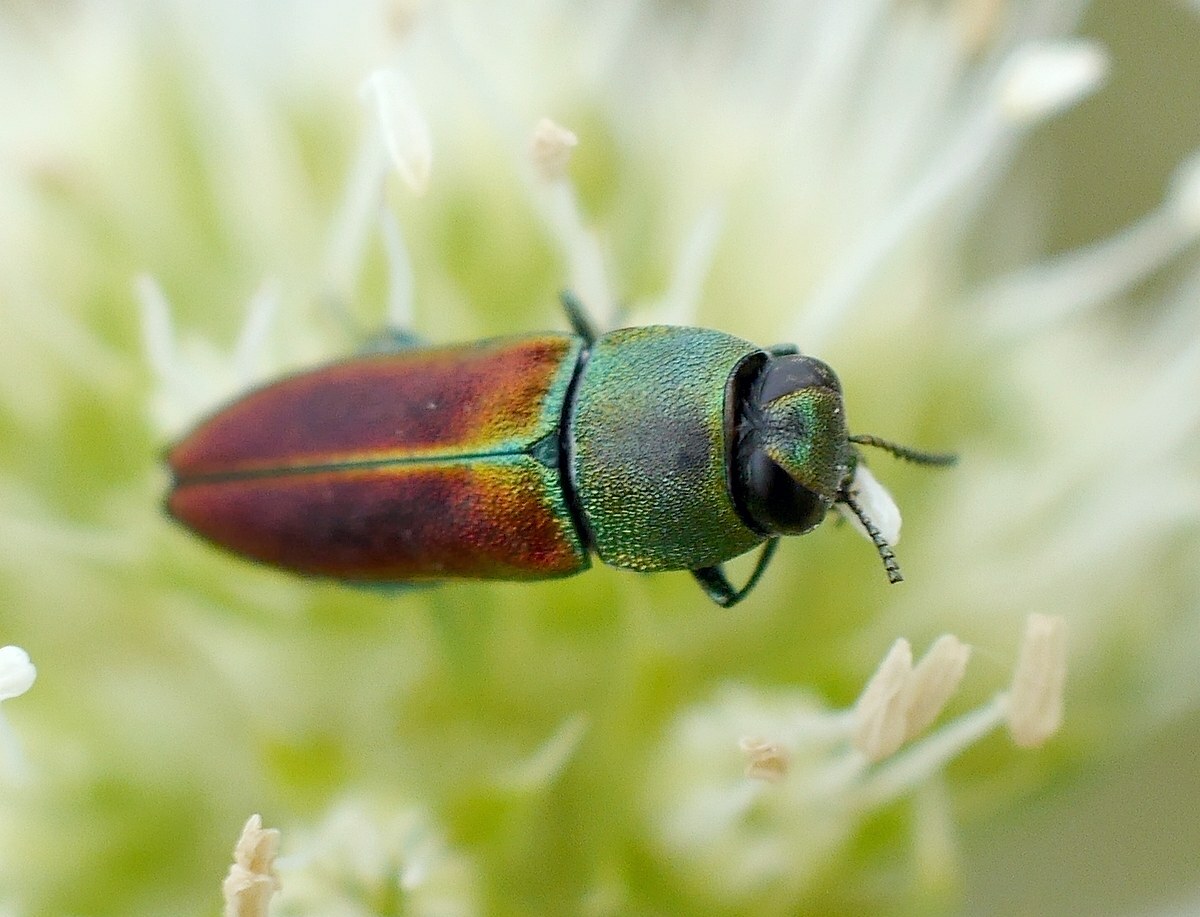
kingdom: Animalia
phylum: Arthropoda
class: Insecta
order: Coleoptera
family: Buprestidae
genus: Anthaxia
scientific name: Anthaxia cichorii
